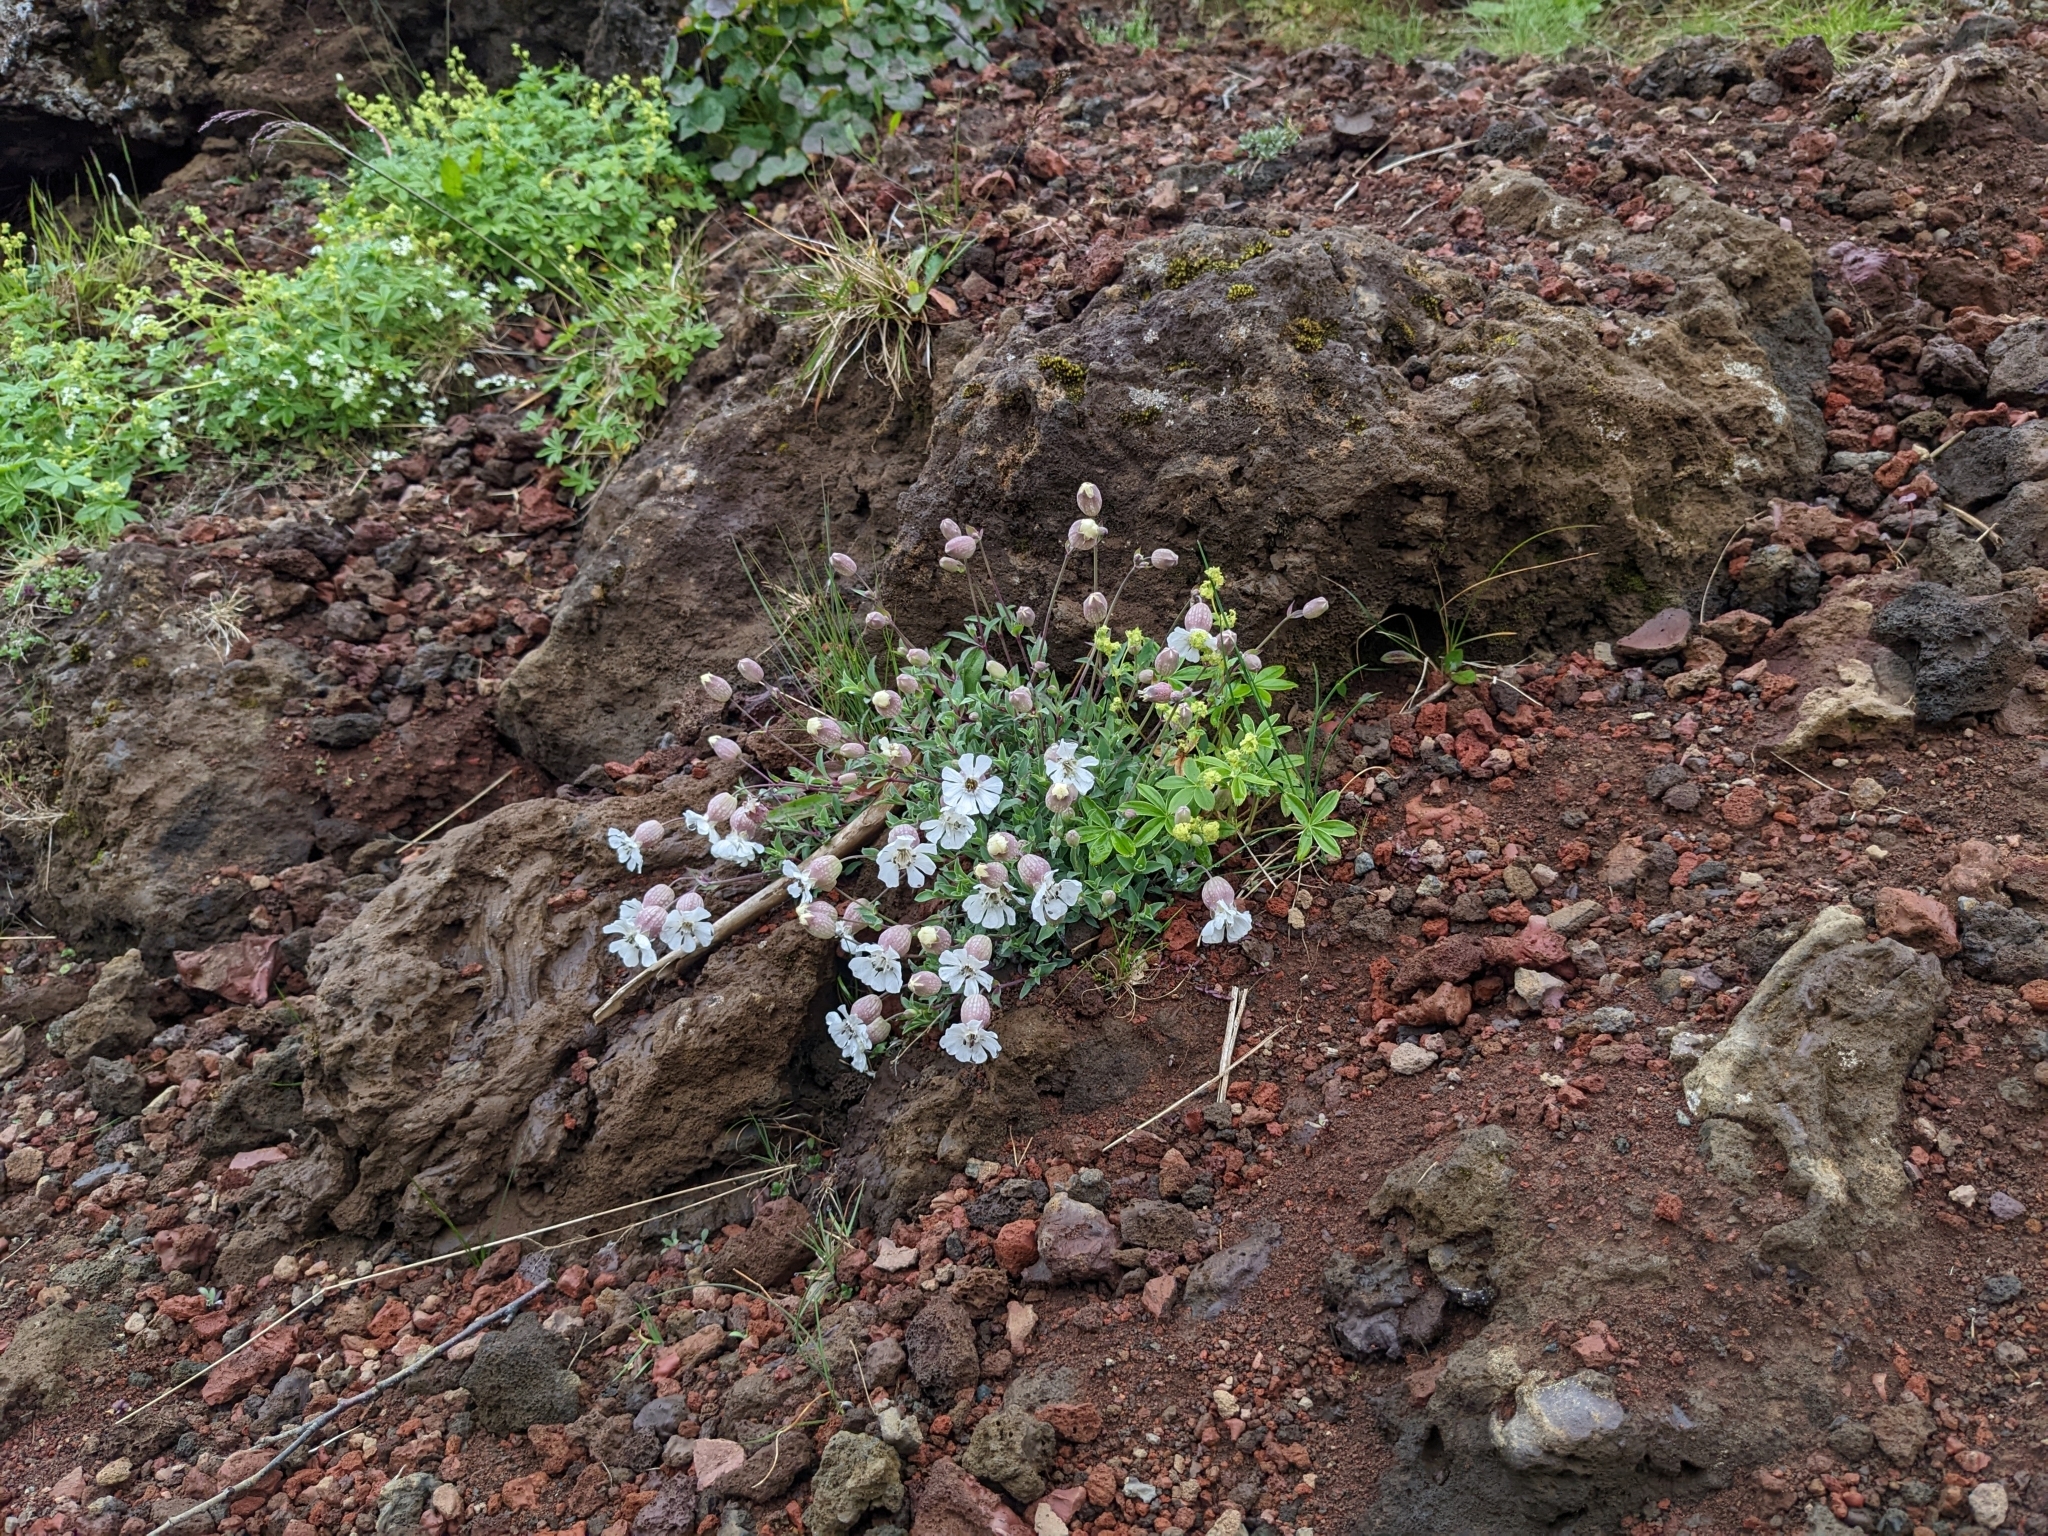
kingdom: Plantae
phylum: Tracheophyta
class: Magnoliopsida
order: Caryophyllales
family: Caryophyllaceae
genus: Silene
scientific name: Silene uniflora
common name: Sea campion
